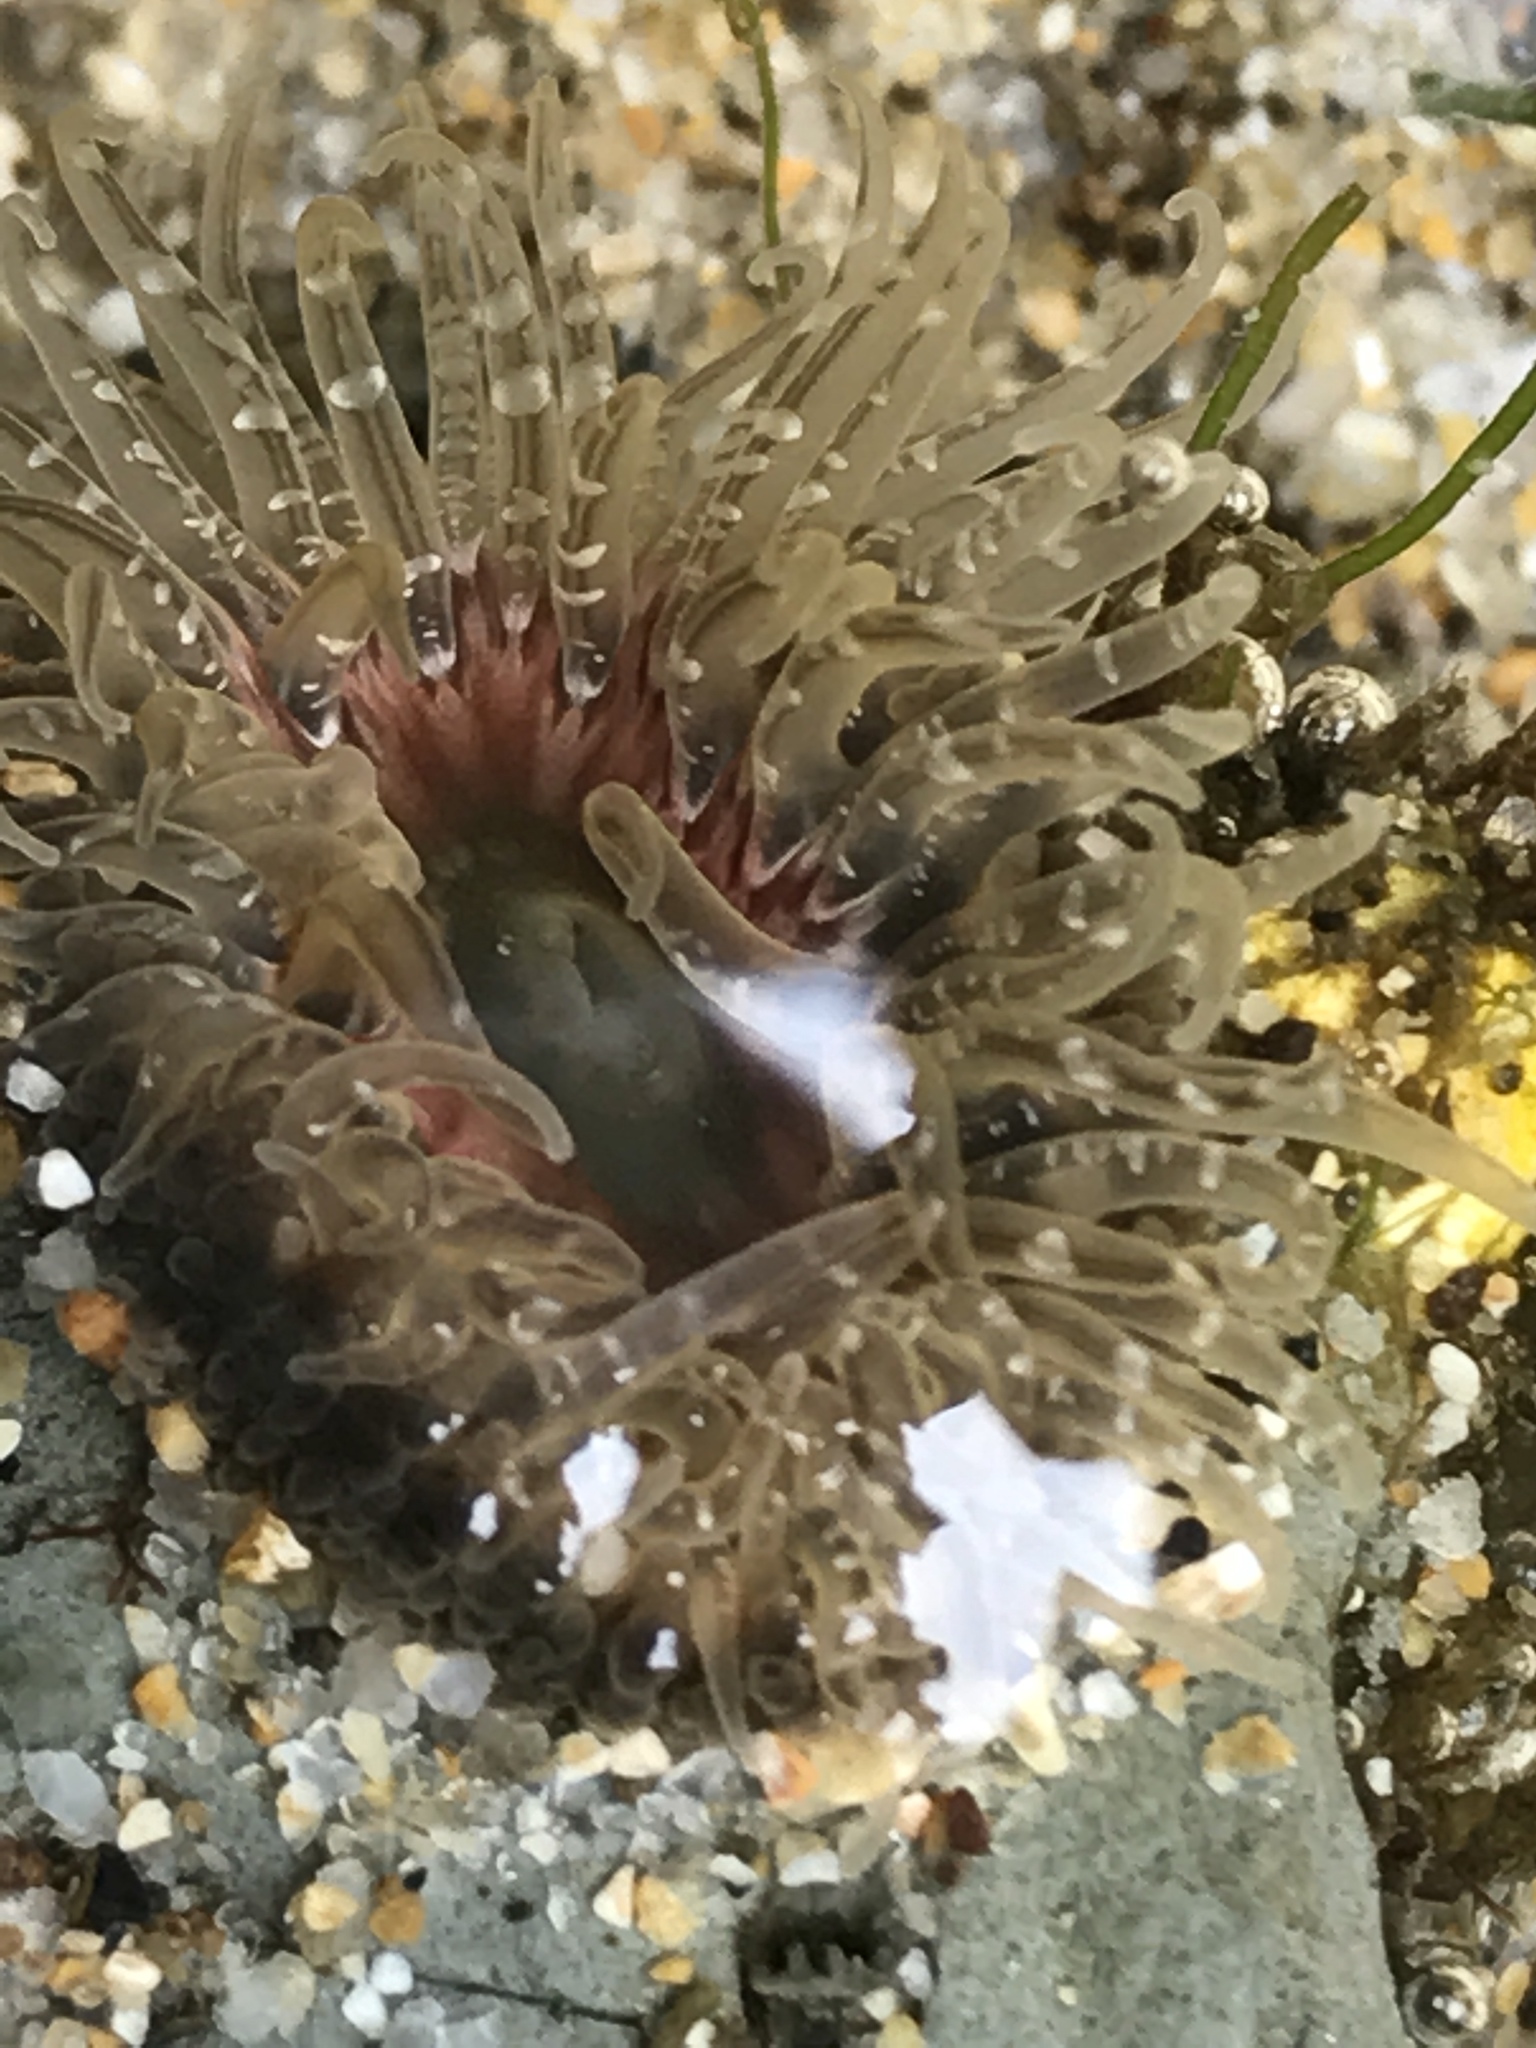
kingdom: Animalia
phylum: Cnidaria
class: Anthozoa
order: Actiniaria
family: Actiniidae
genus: Anthopleura
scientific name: Anthopleura artemisia
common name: Buried sea anemone
